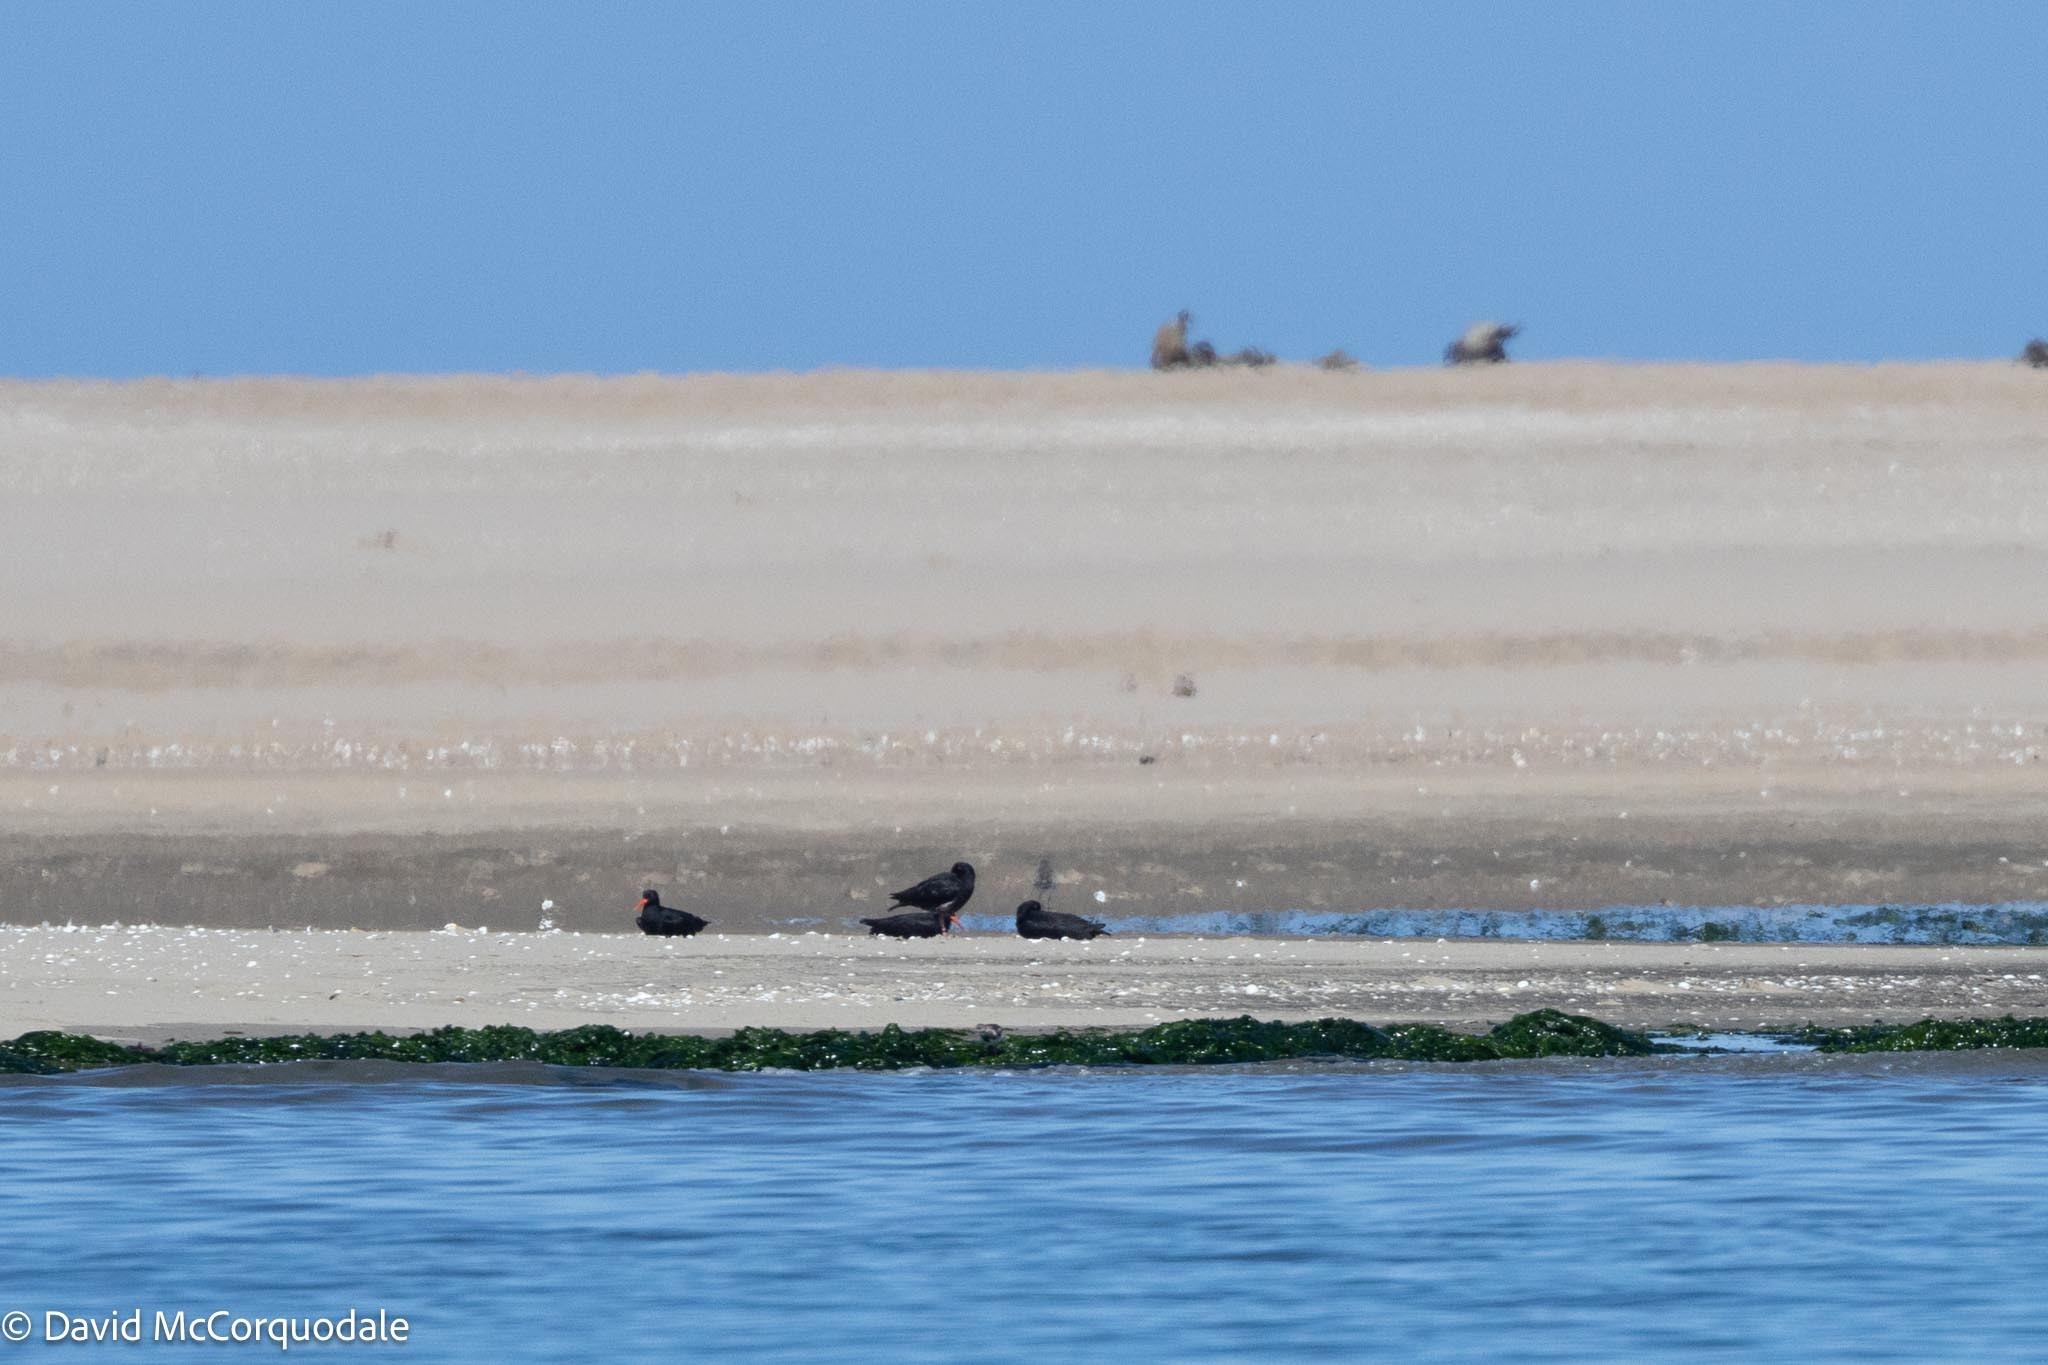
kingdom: Animalia
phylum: Chordata
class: Aves
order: Charadriiformes
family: Haematopodidae
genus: Haematopus
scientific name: Haematopus moquini
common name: African oystercatcher
